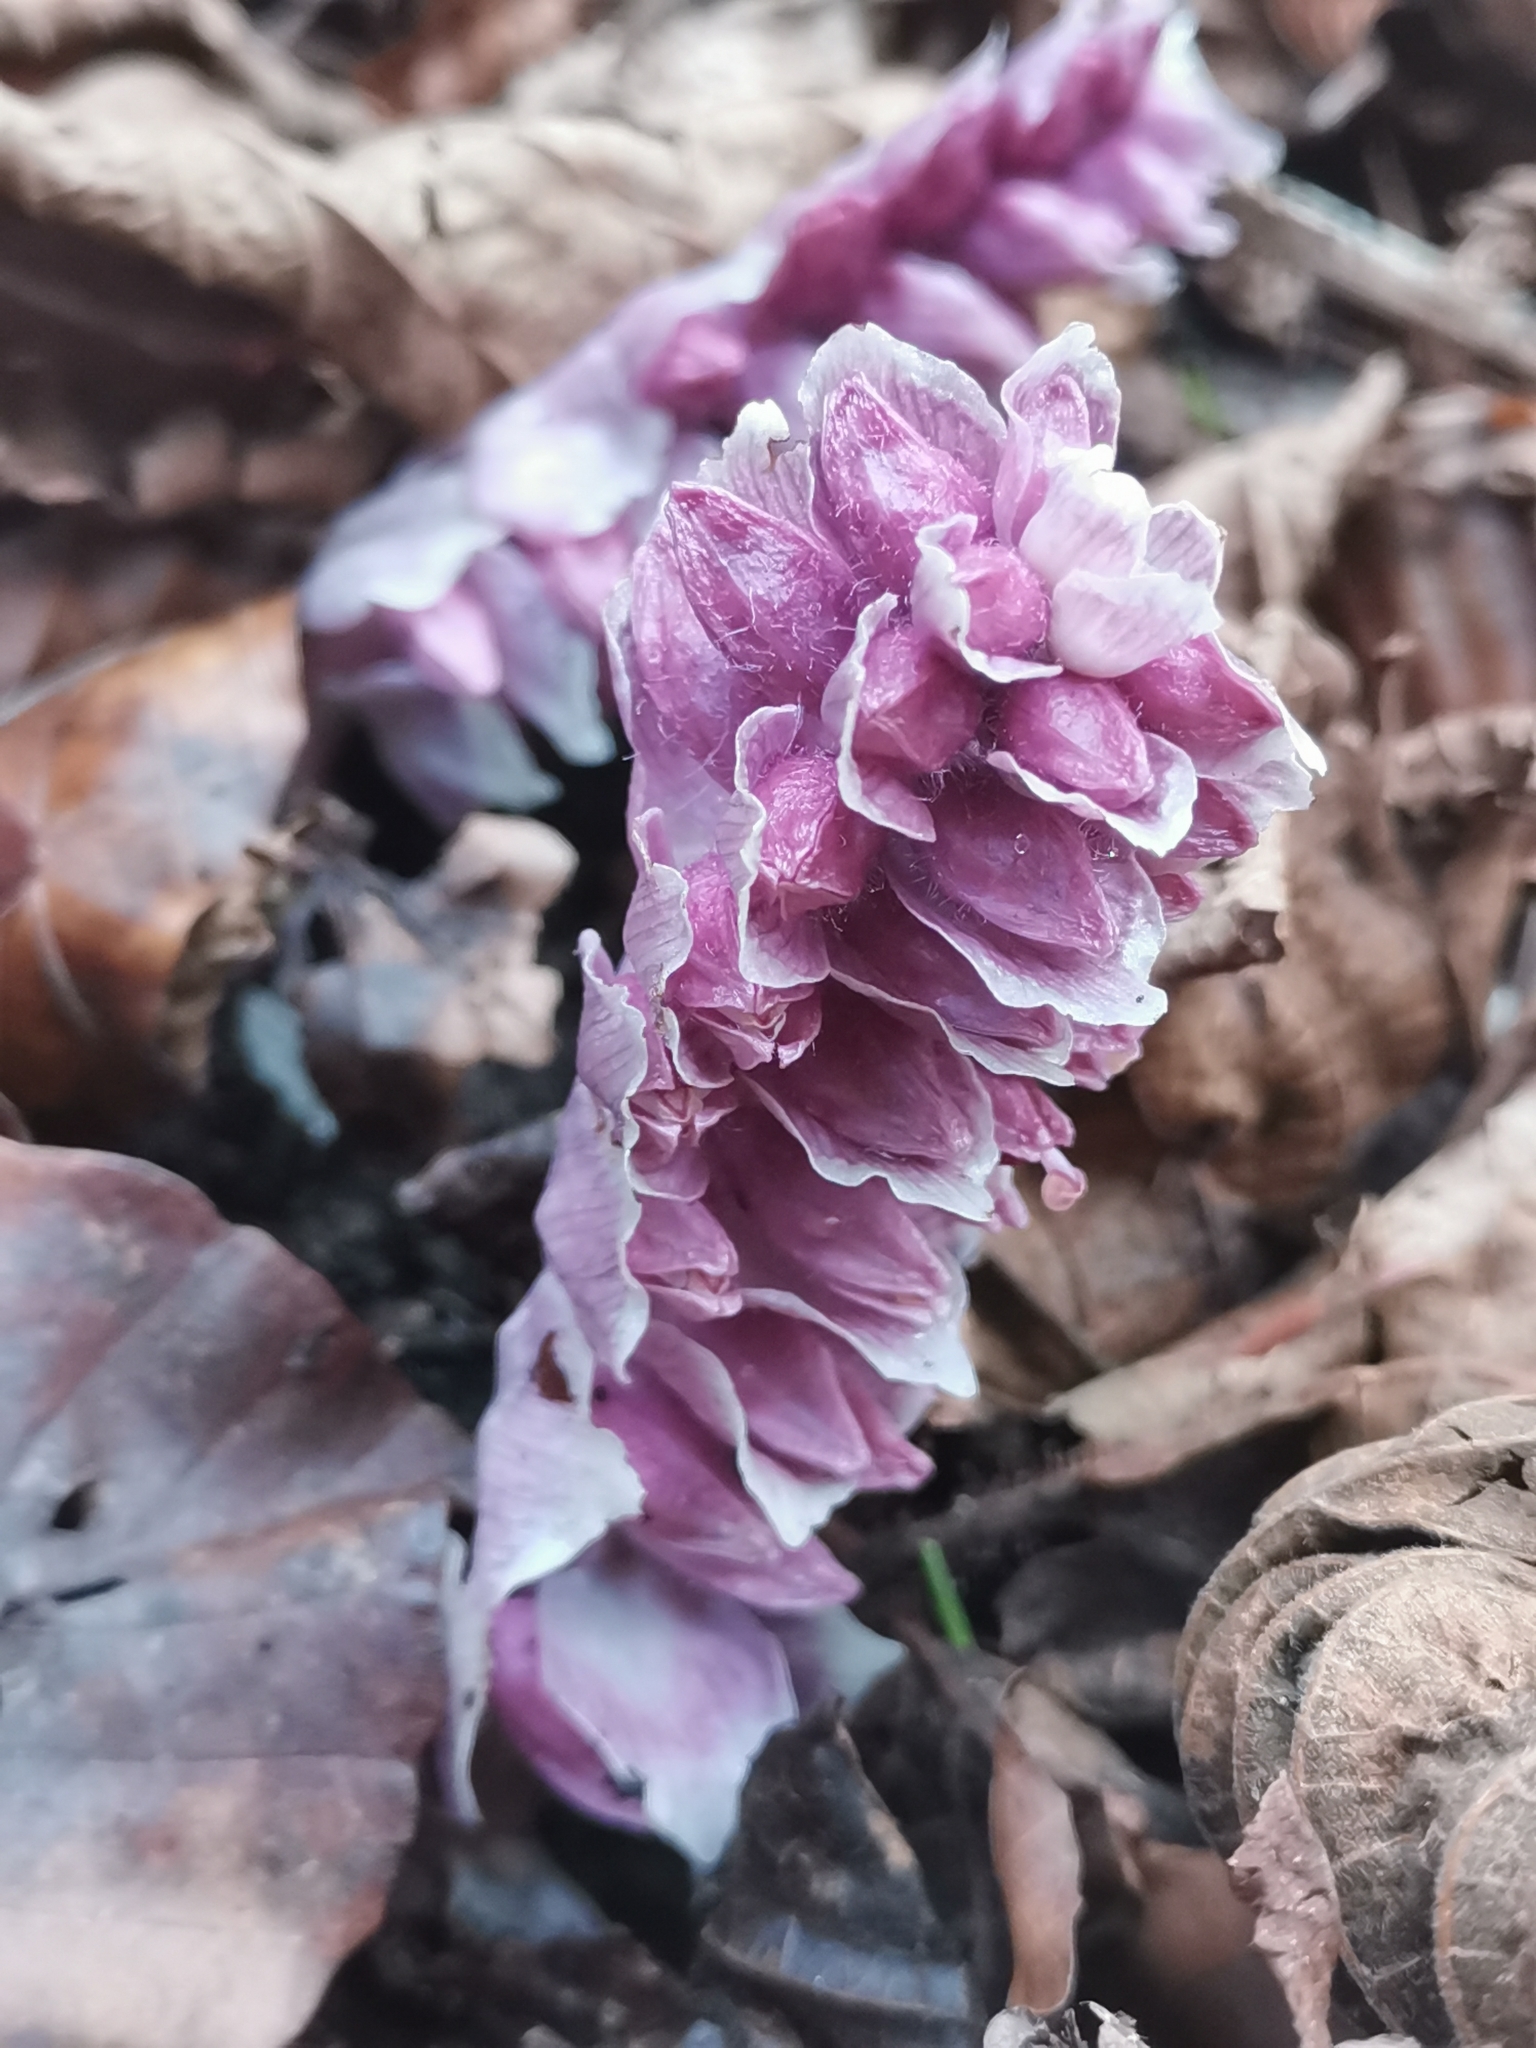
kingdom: Plantae
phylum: Tracheophyta
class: Magnoliopsida
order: Lamiales
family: Orobanchaceae
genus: Lathraea
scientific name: Lathraea squamaria
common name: Toothwort
